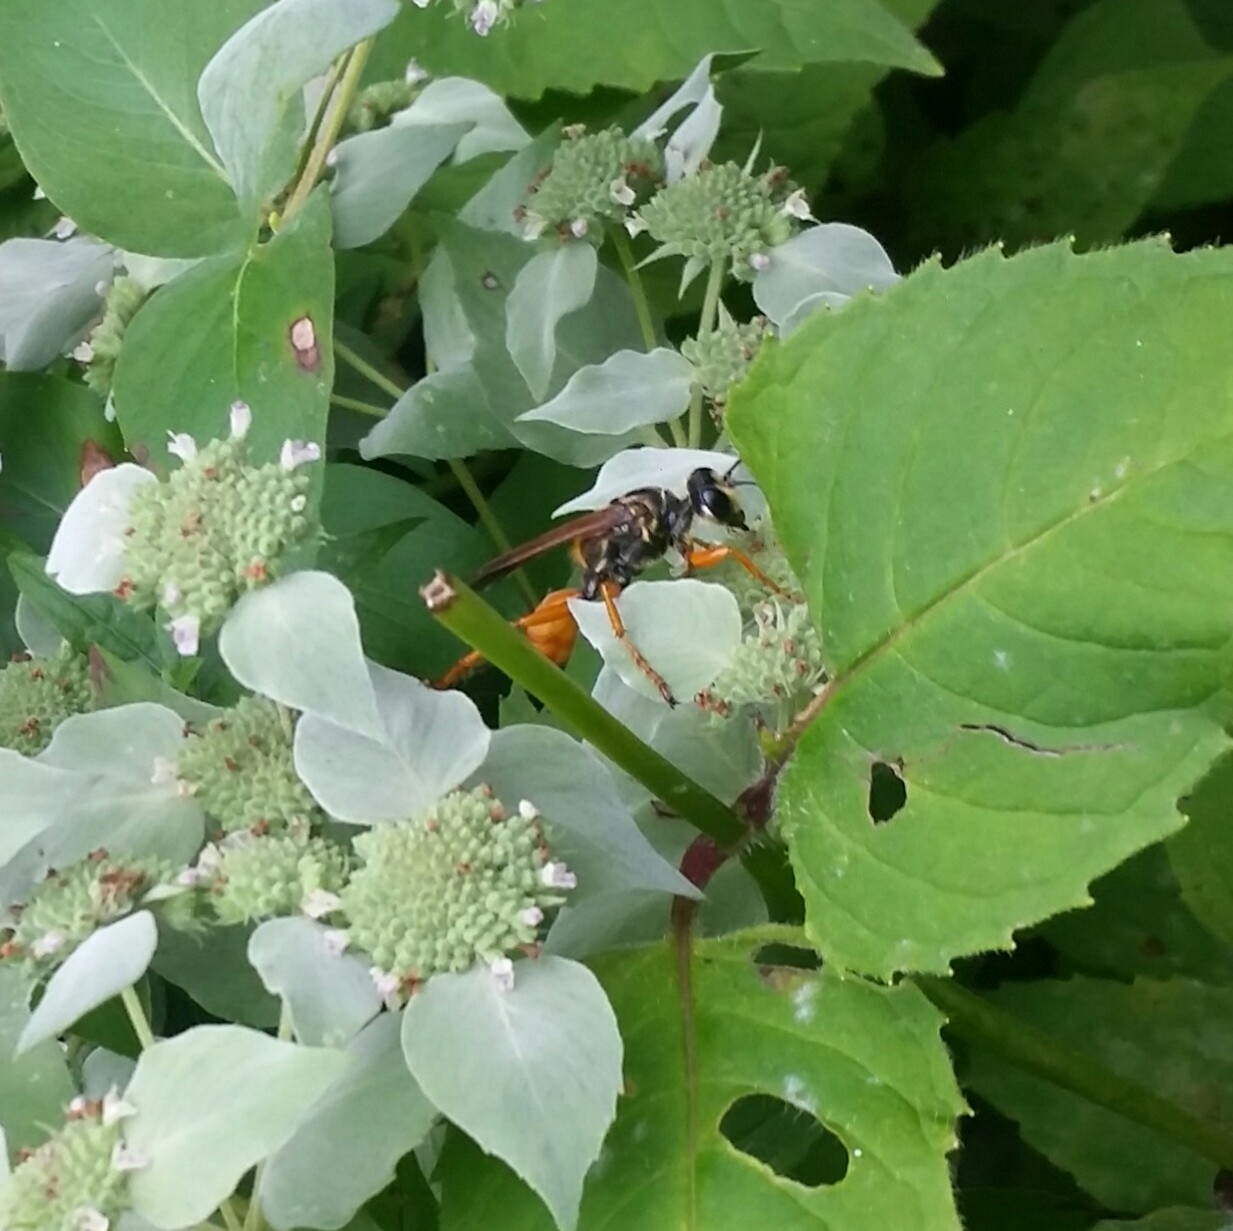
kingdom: Animalia
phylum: Arthropoda
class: Insecta
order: Hymenoptera
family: Sphecidae
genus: Sphex
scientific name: Sphex ichneumoneus
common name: Great golden digger wasp
